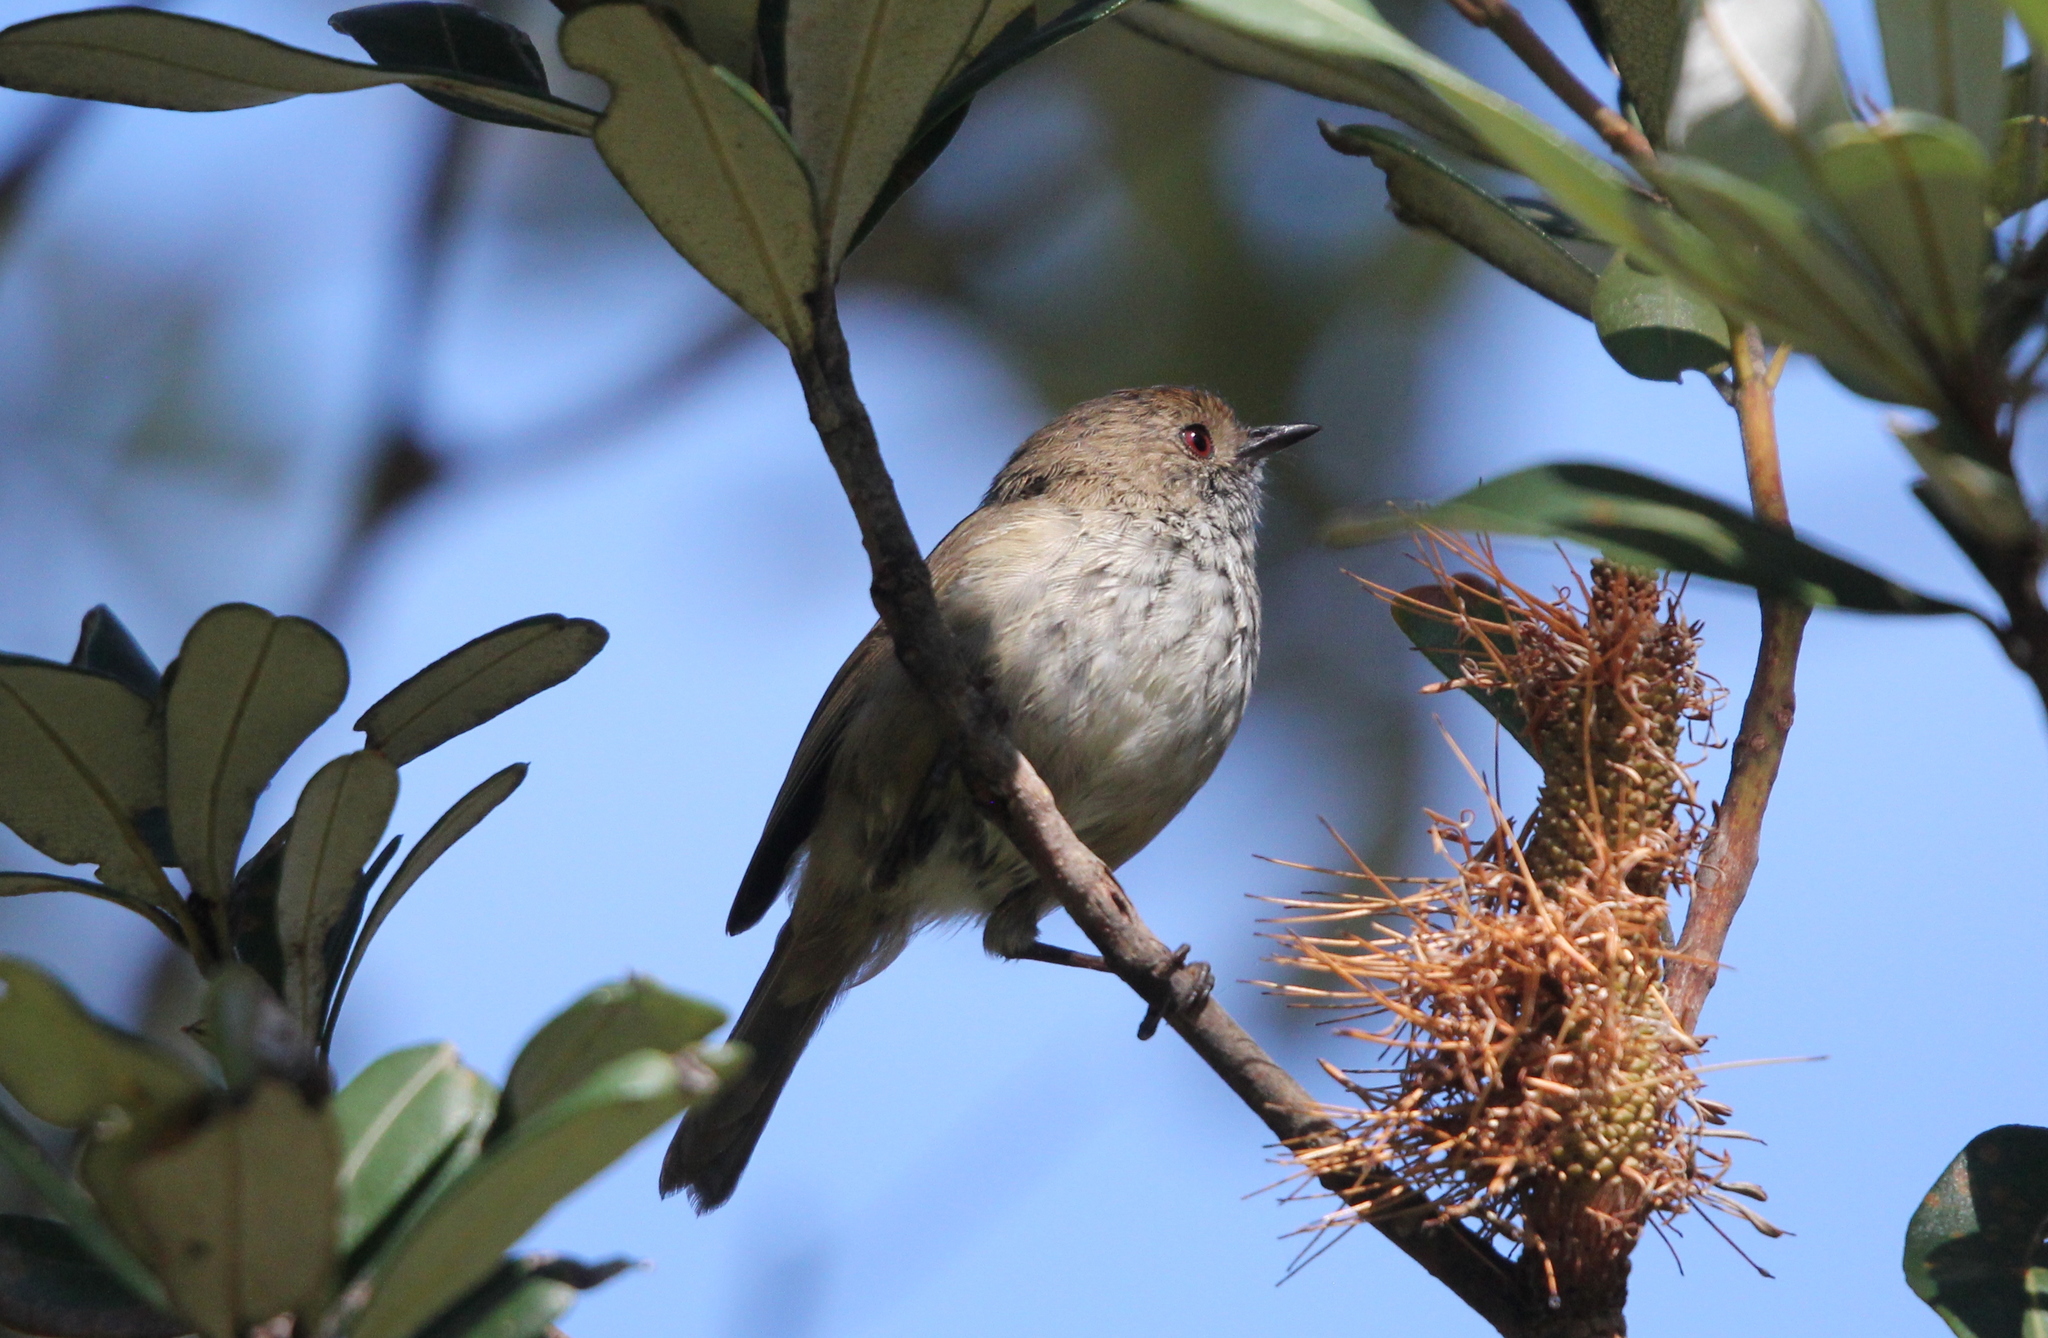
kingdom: Animalia
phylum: Chordata
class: Aves
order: Passeriformes
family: Acanthizidae
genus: Acanthiza
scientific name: Acanthiza pusilla
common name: Brown thornbill
